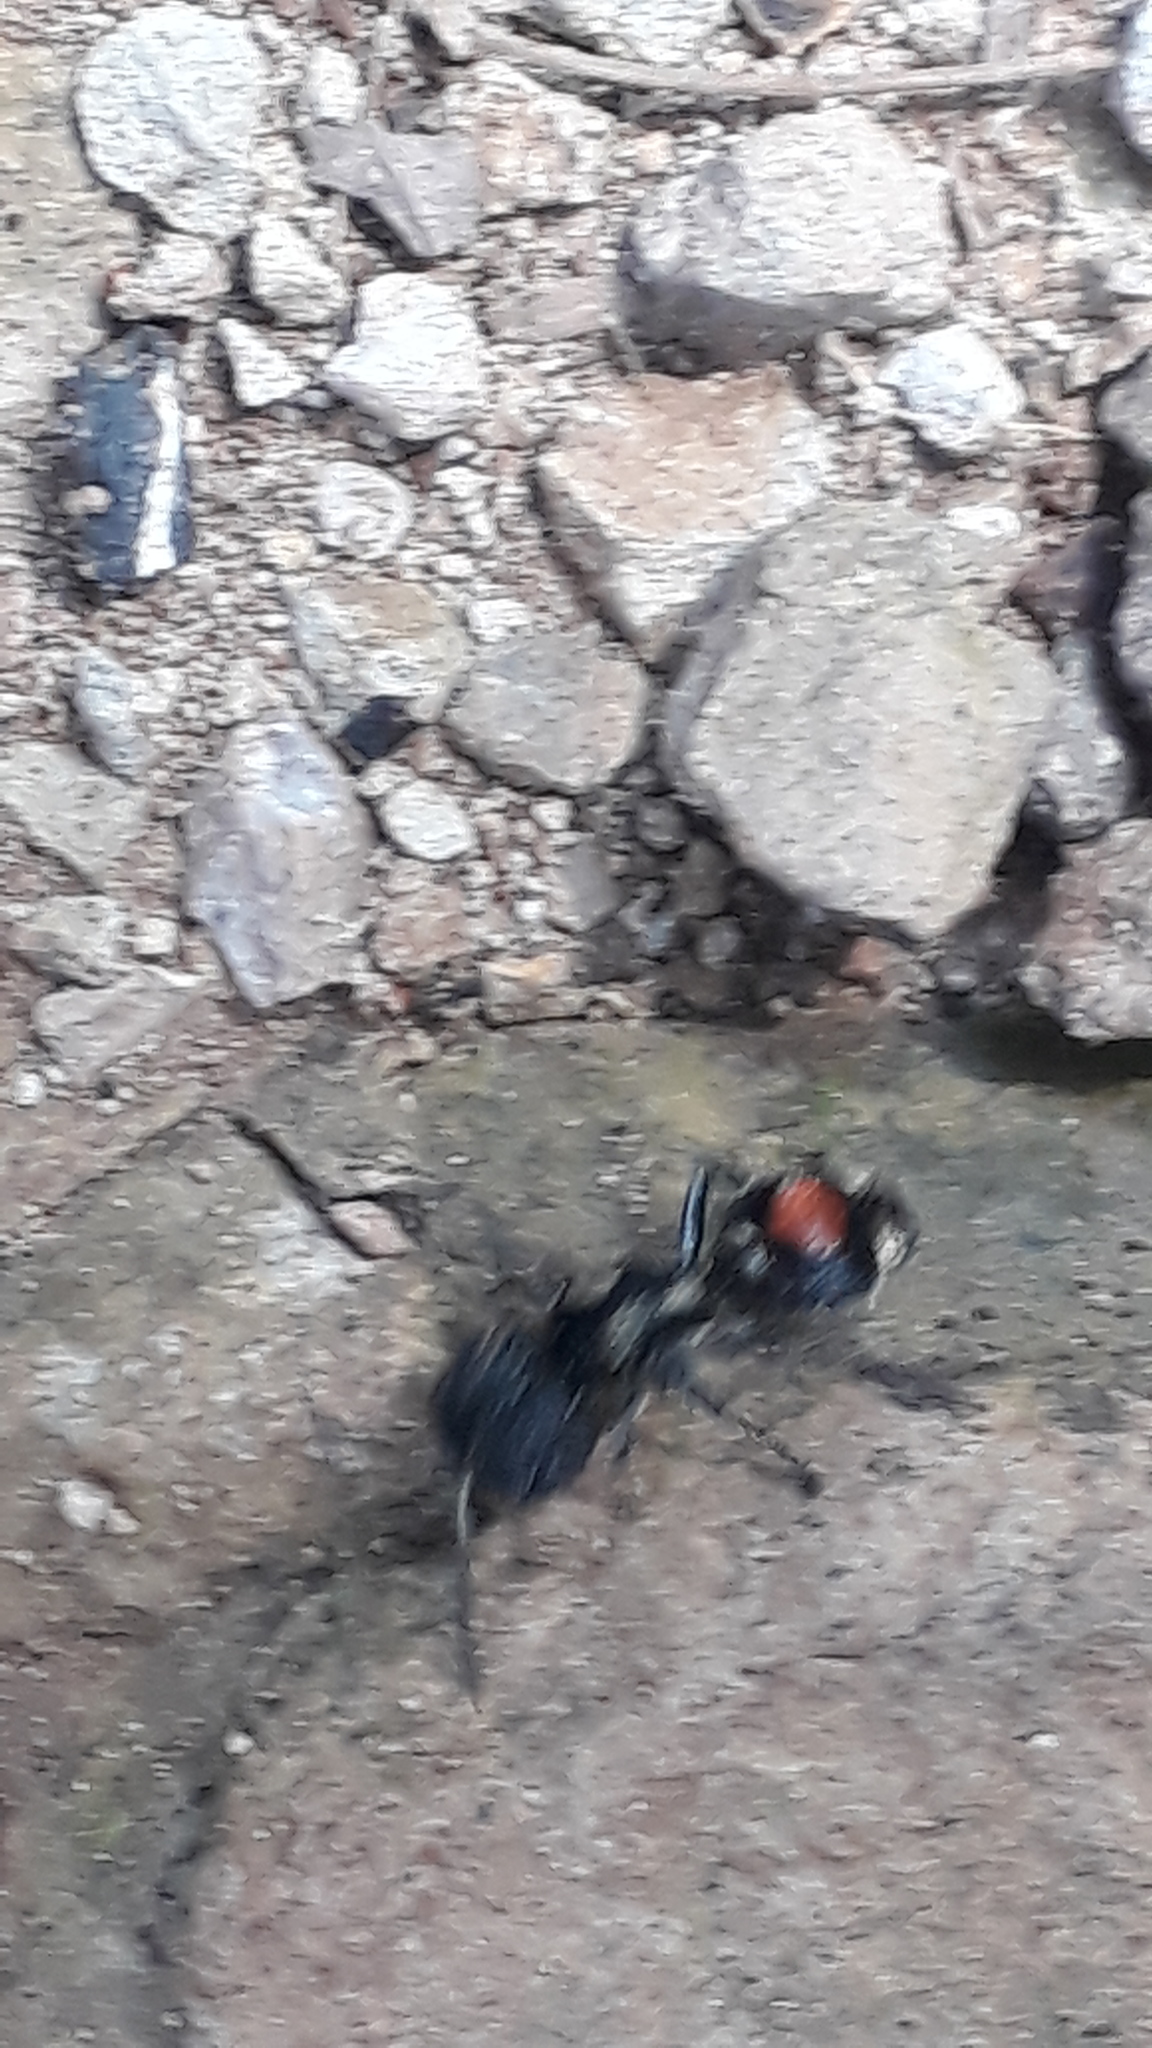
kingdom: Animalia
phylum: Arthropoda
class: Insecta
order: Hymenoptera
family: Mutillidae
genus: Hoplocrates
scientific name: Hoplocrates
